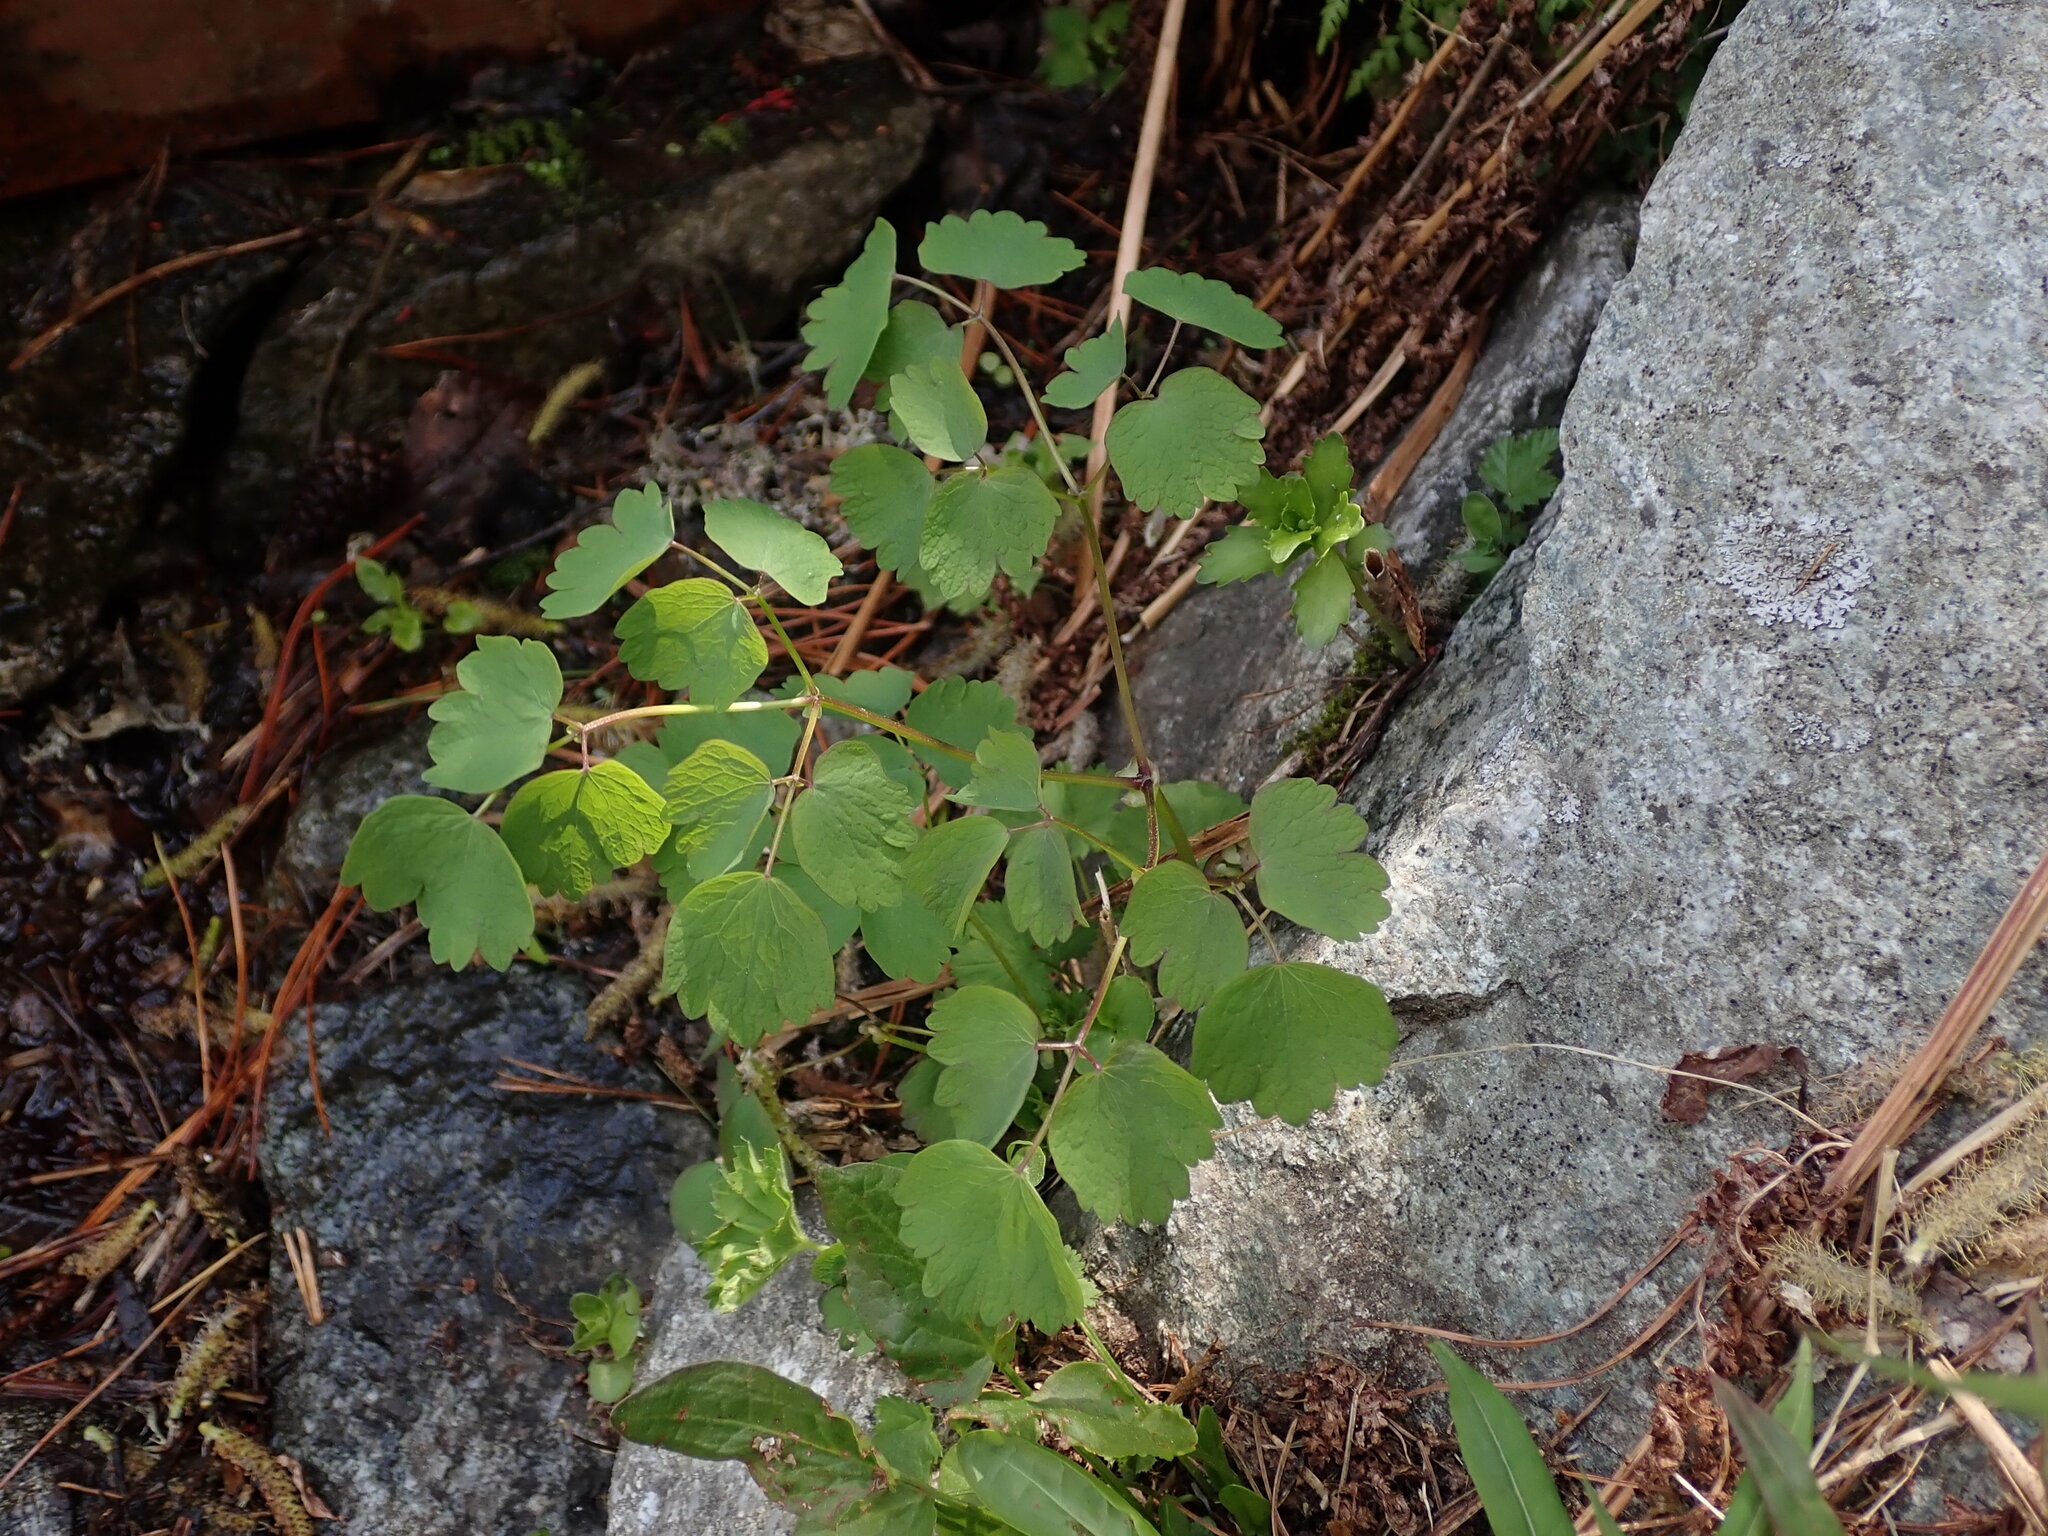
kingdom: Plantae
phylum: Tracheophyta
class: Magnoliopsida
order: Ranunculales
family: Ranunculaceae
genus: Thalictrum
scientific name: Thalictrum aquilegiifolium
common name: French meadow-rue
